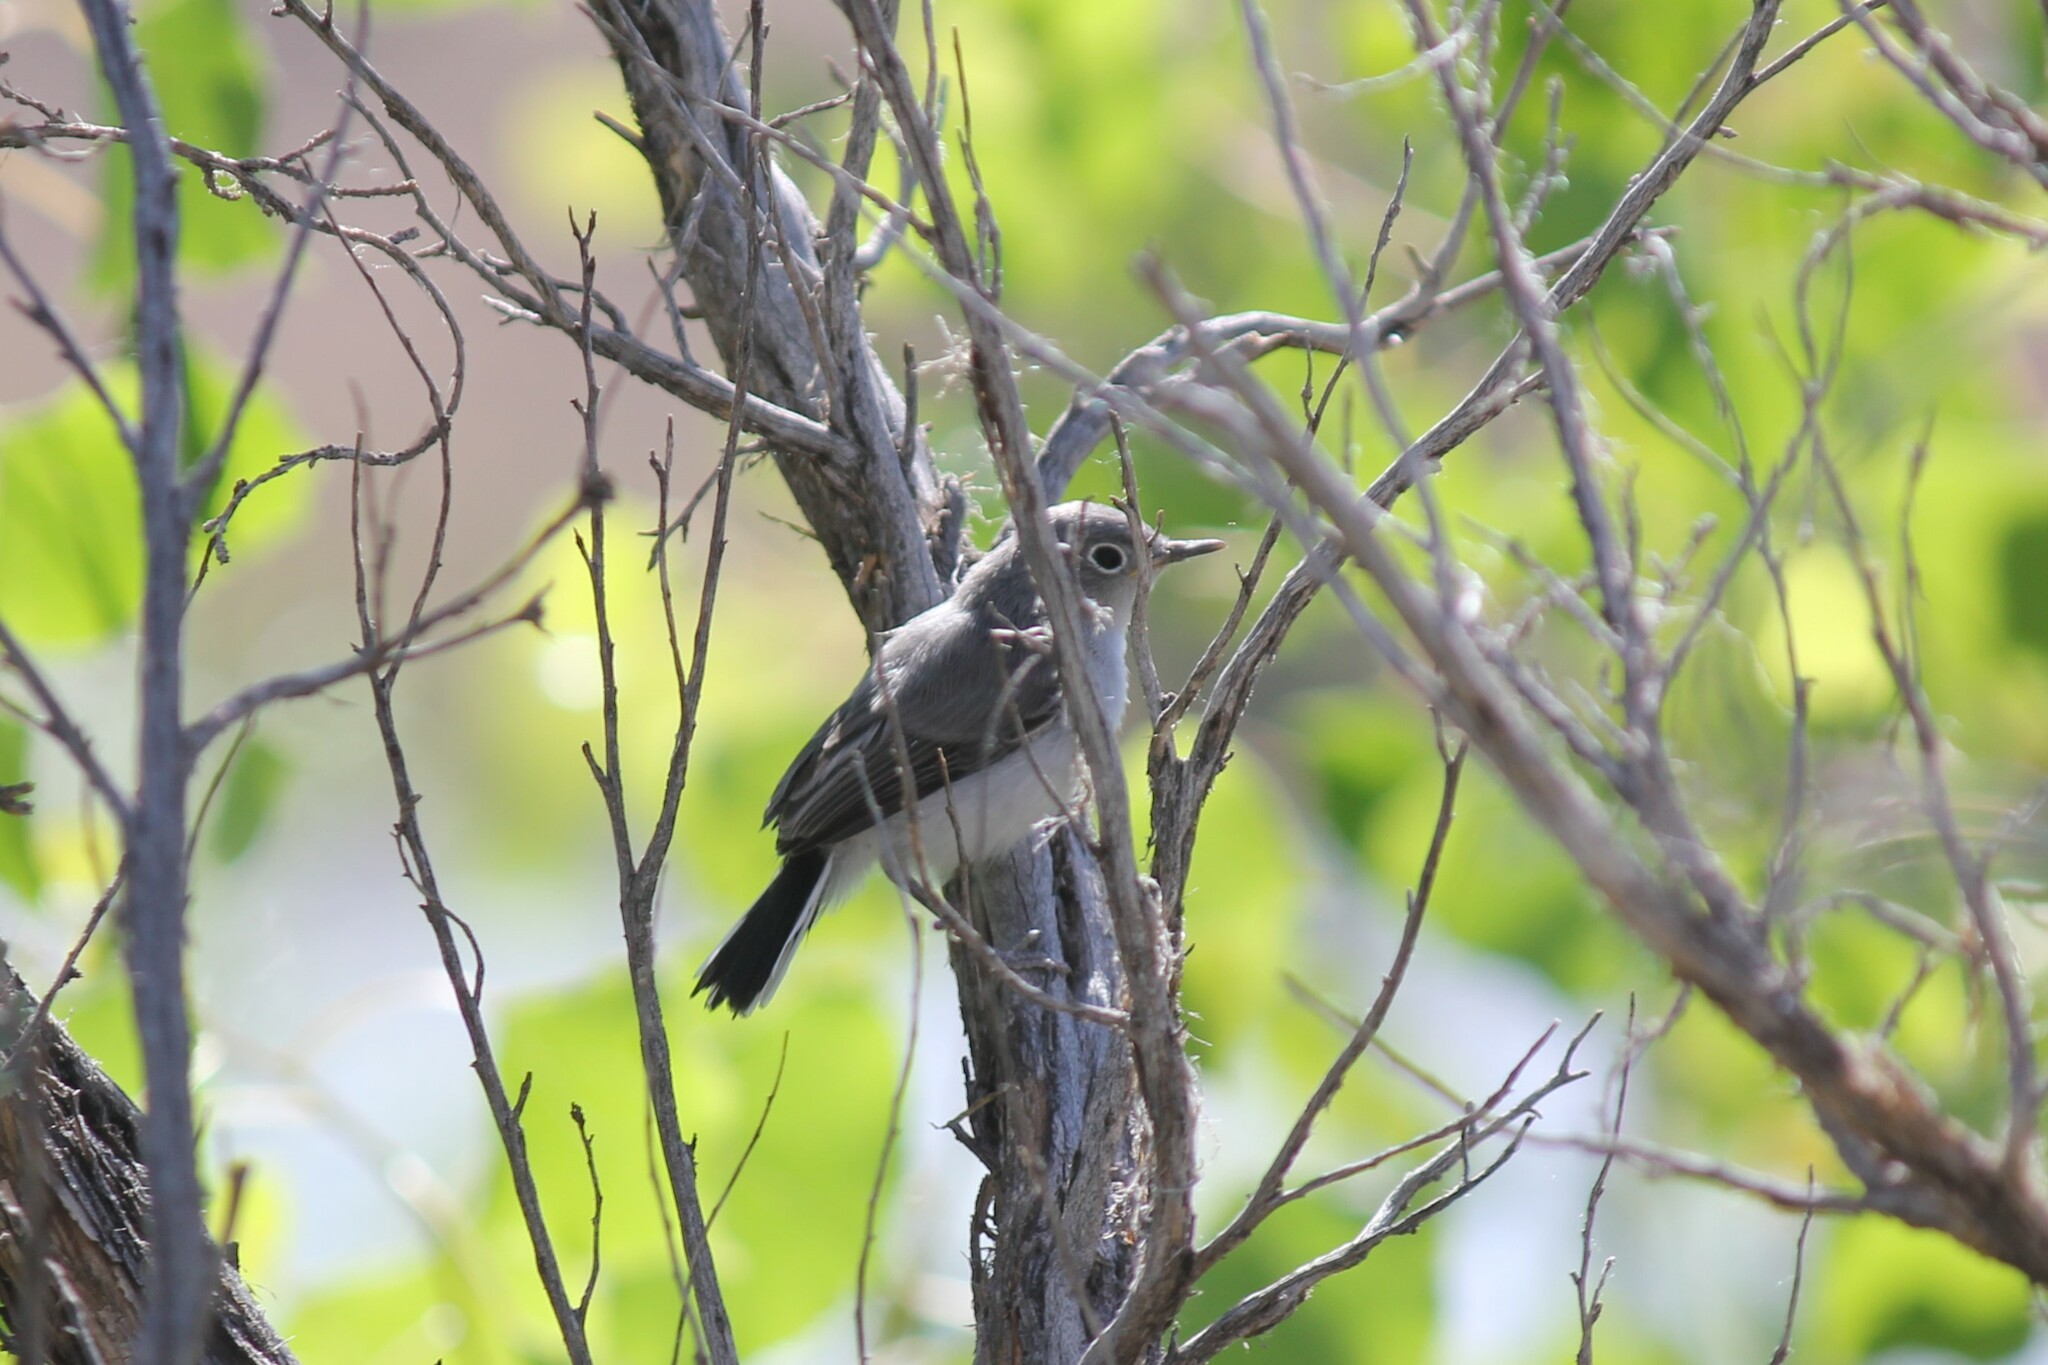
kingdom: Animalia
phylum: Chordata
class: Aves
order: Passeriformes
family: Polioptilidae
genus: Polioptila
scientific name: Polioptila caerulea
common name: Blue-gray gnatcatcher
